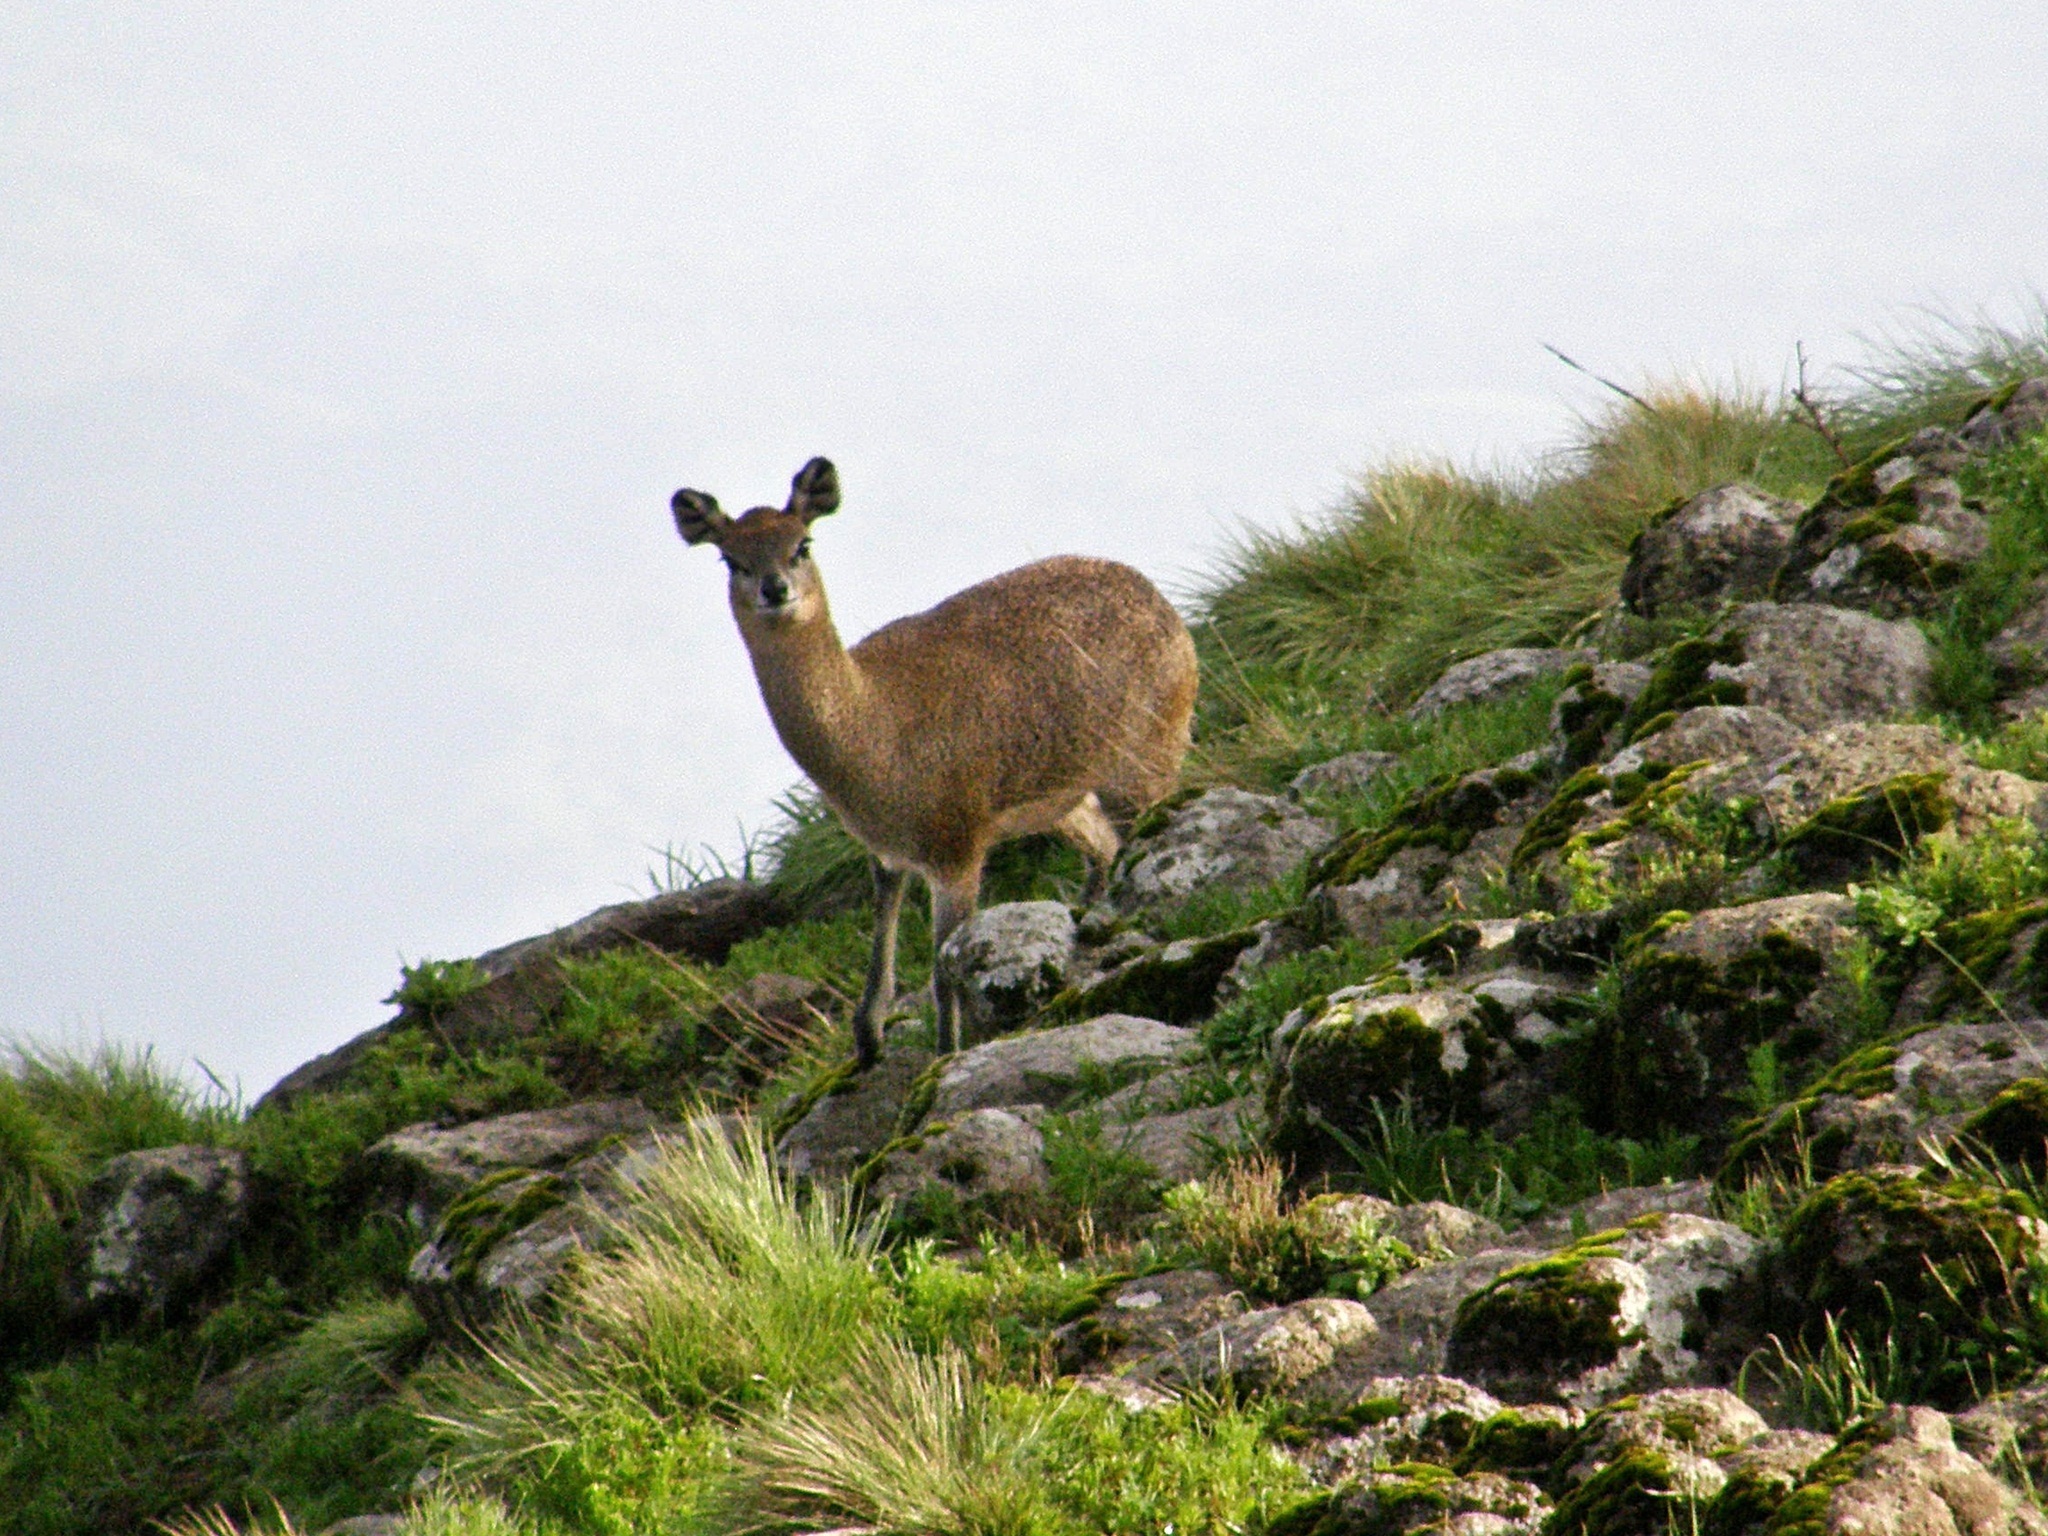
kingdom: Animalia
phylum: Chordata
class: Mammalia
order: Artiodactyla
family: Bovidae
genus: Oreotragus
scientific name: Oreotragus oreotragus
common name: Klipspringer
